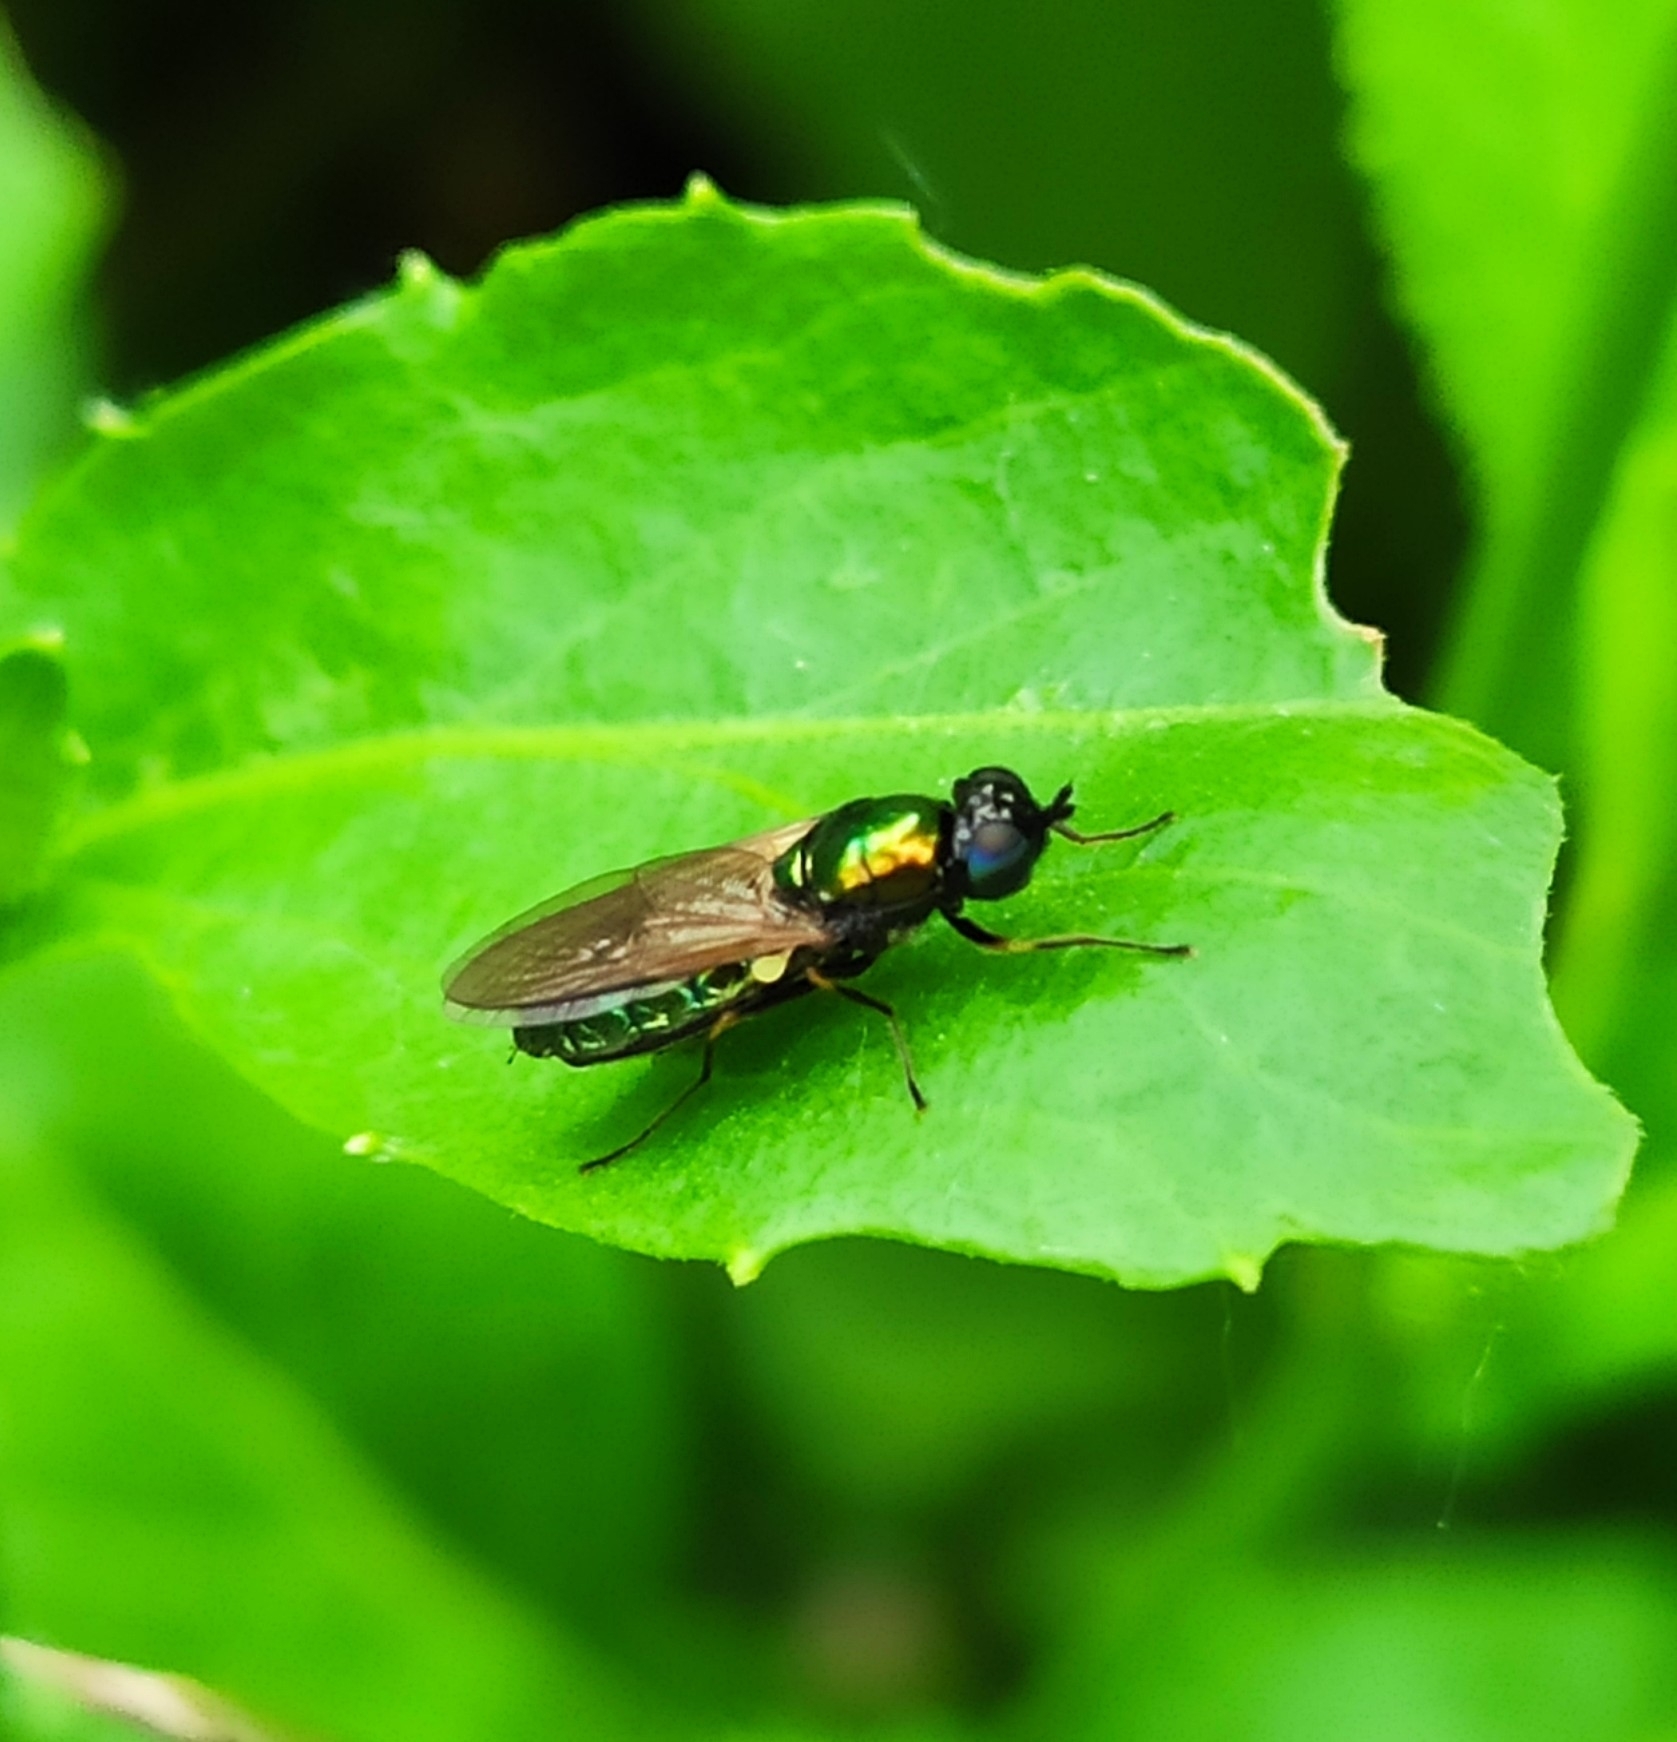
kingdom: Animalia
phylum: Arthropoda
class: Insecta
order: Diptera
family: Stratiomyidae
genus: Chloromyia
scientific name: Chloromyia formosa
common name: Soldier fly
